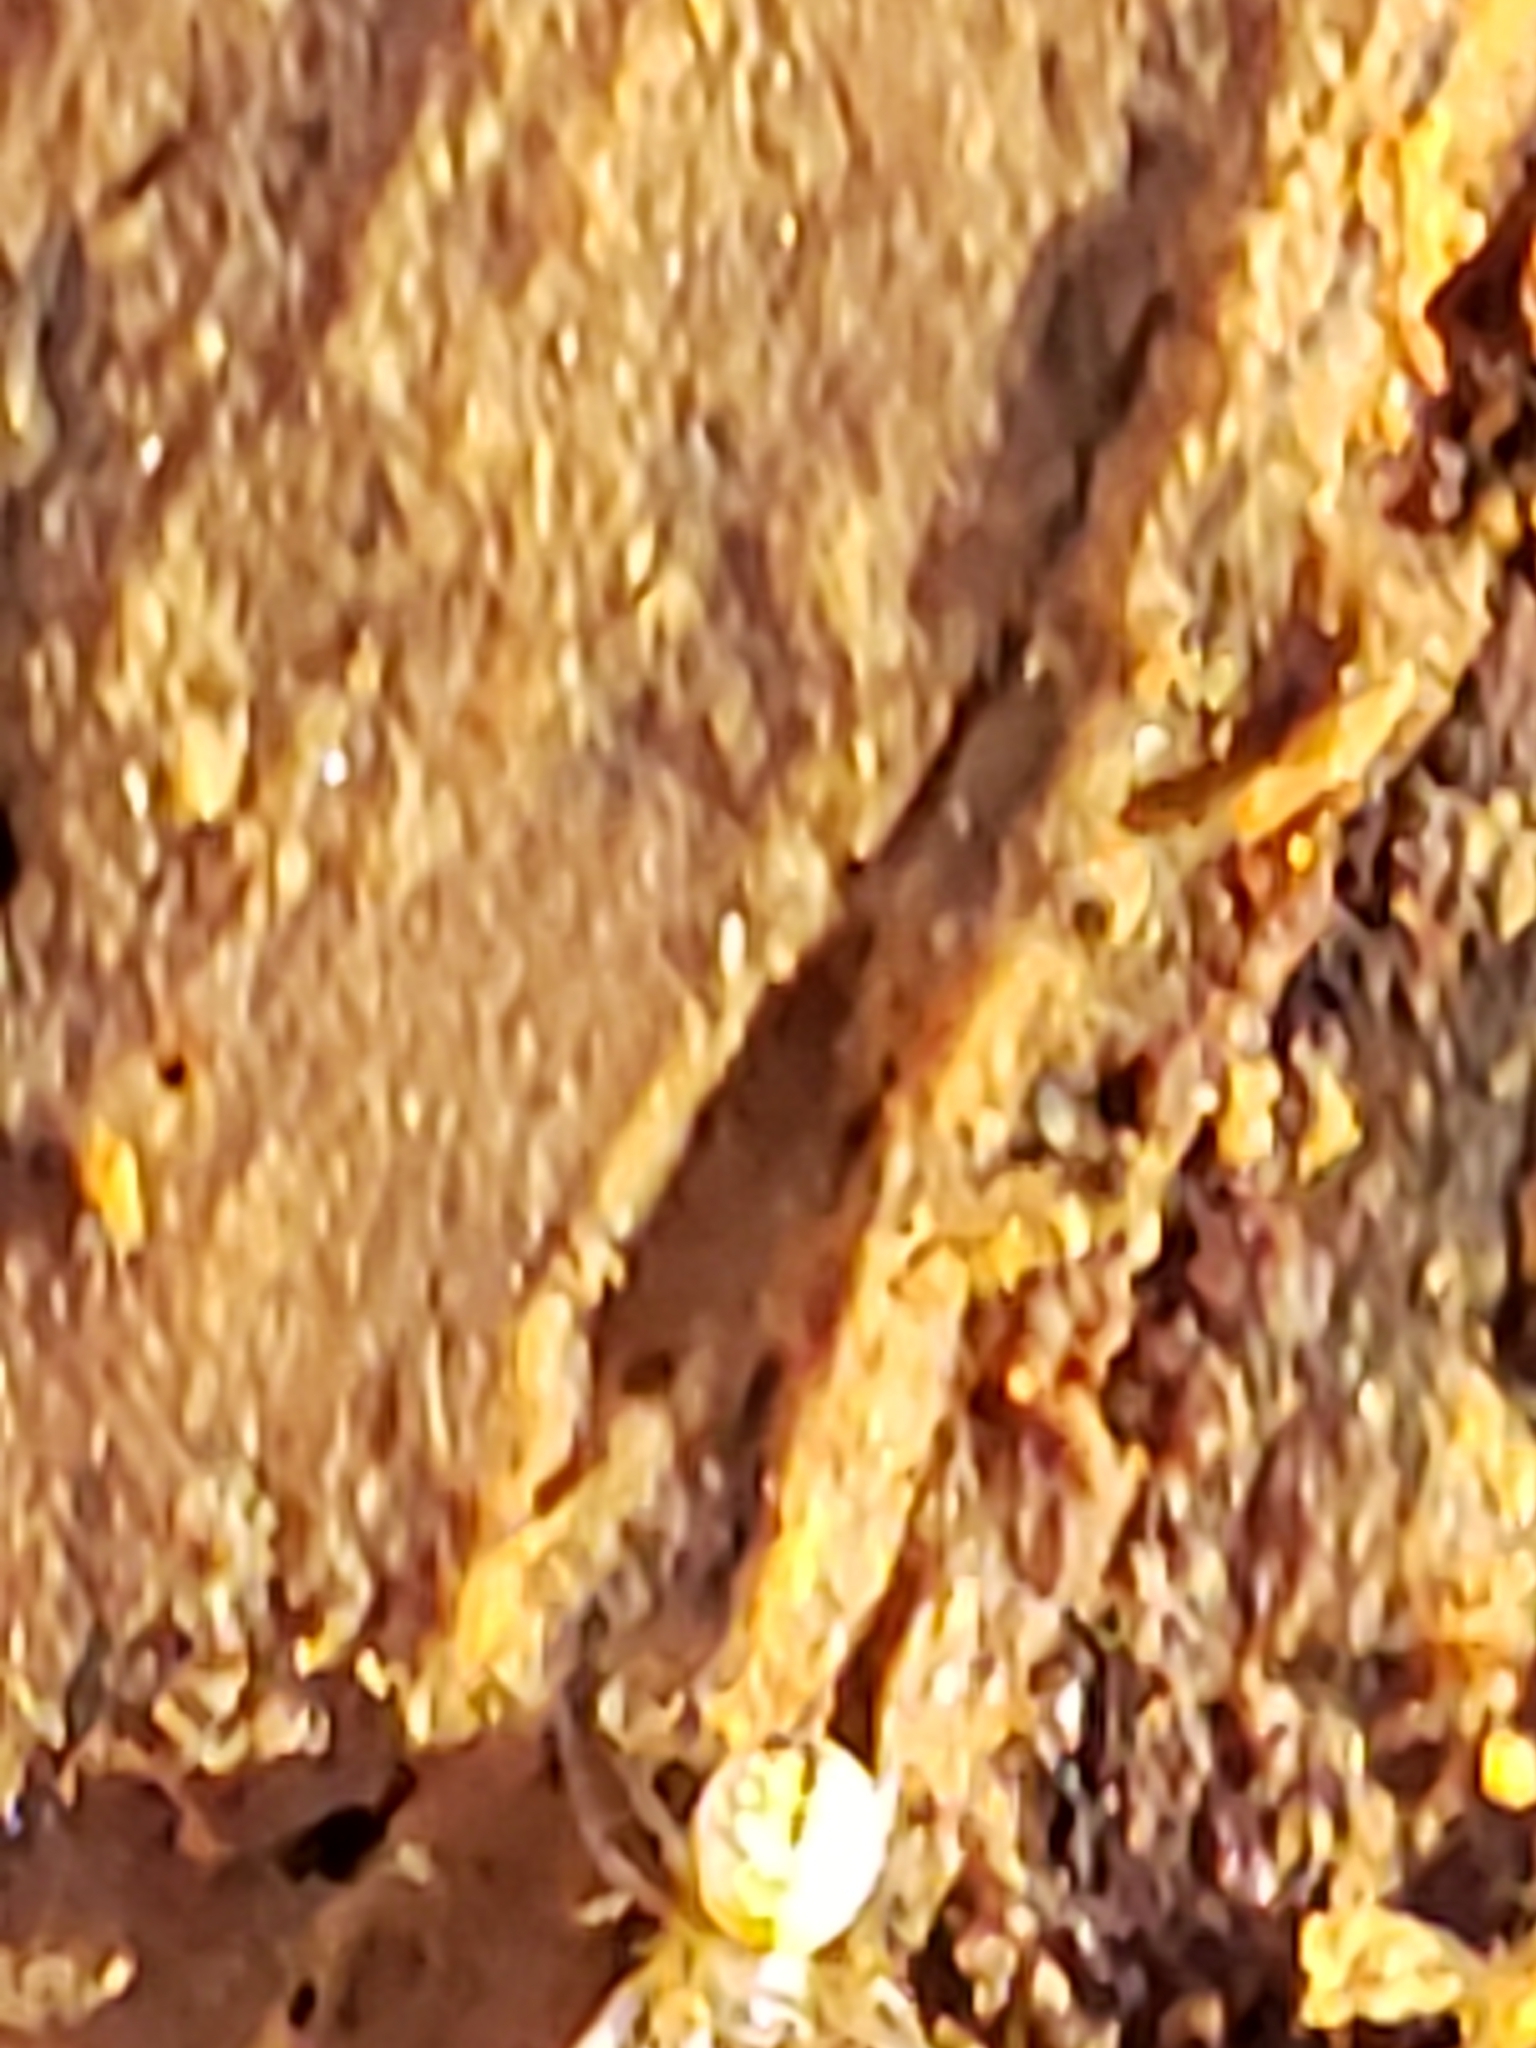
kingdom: Animalia
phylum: Arthropoda
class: Arachnida
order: Araneae
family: Tetragnathidae
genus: Leucauge
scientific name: Leucauge venusta
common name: Longjawed orb weavers
